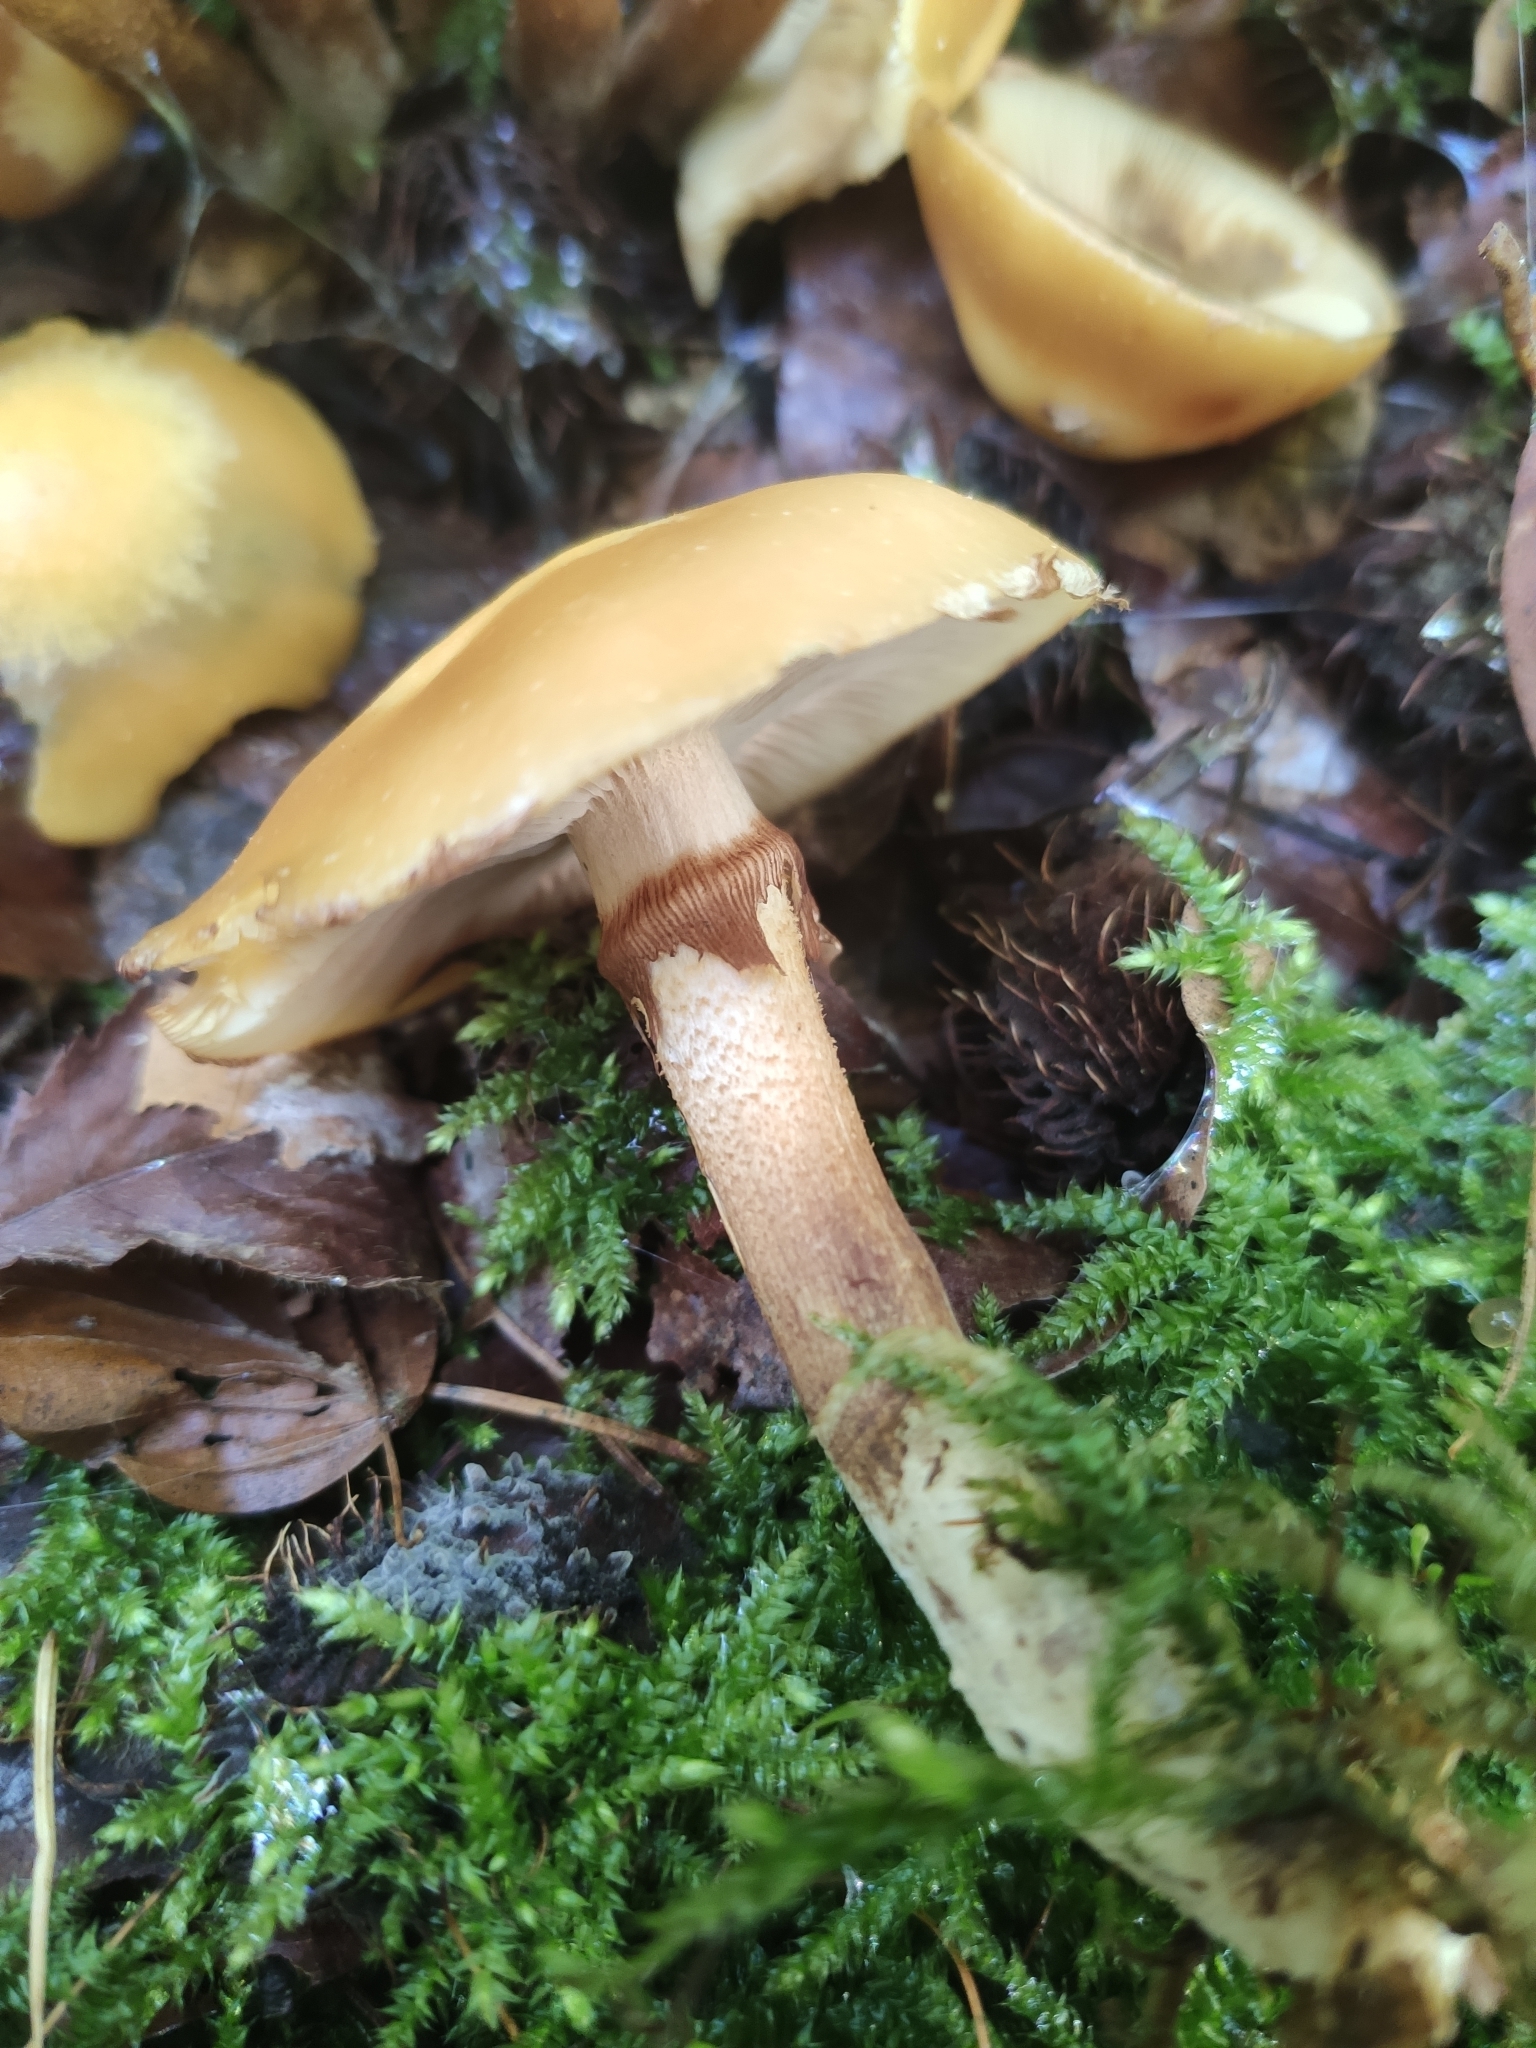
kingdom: Fungi
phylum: Basidiomycota
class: Agaricomycetes
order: Agaricales
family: Strophariaceae
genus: Kuehneromyces
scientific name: Kuehneromyces mutabilis
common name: Sheathed woodtuft
